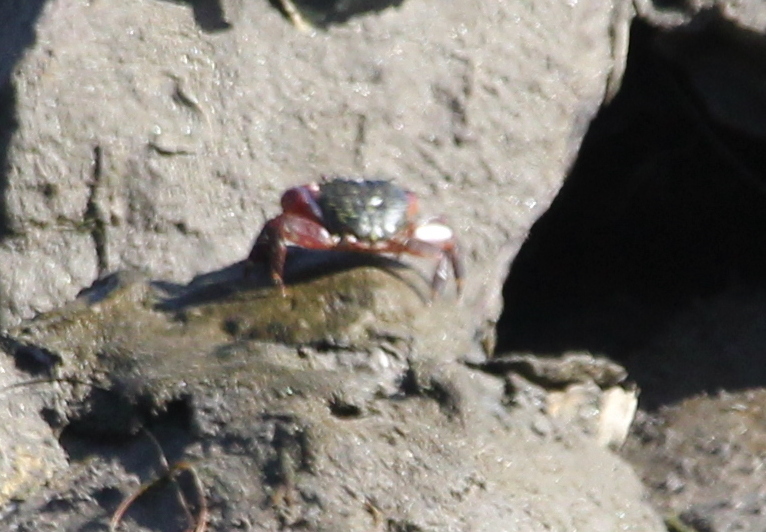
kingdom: Animalia
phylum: Arthropoda
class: Malacostraca
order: Decapoda
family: Grapsidae
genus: Pachygrapsus
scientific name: Pachygrapsus crassipes
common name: Striped shore crab
